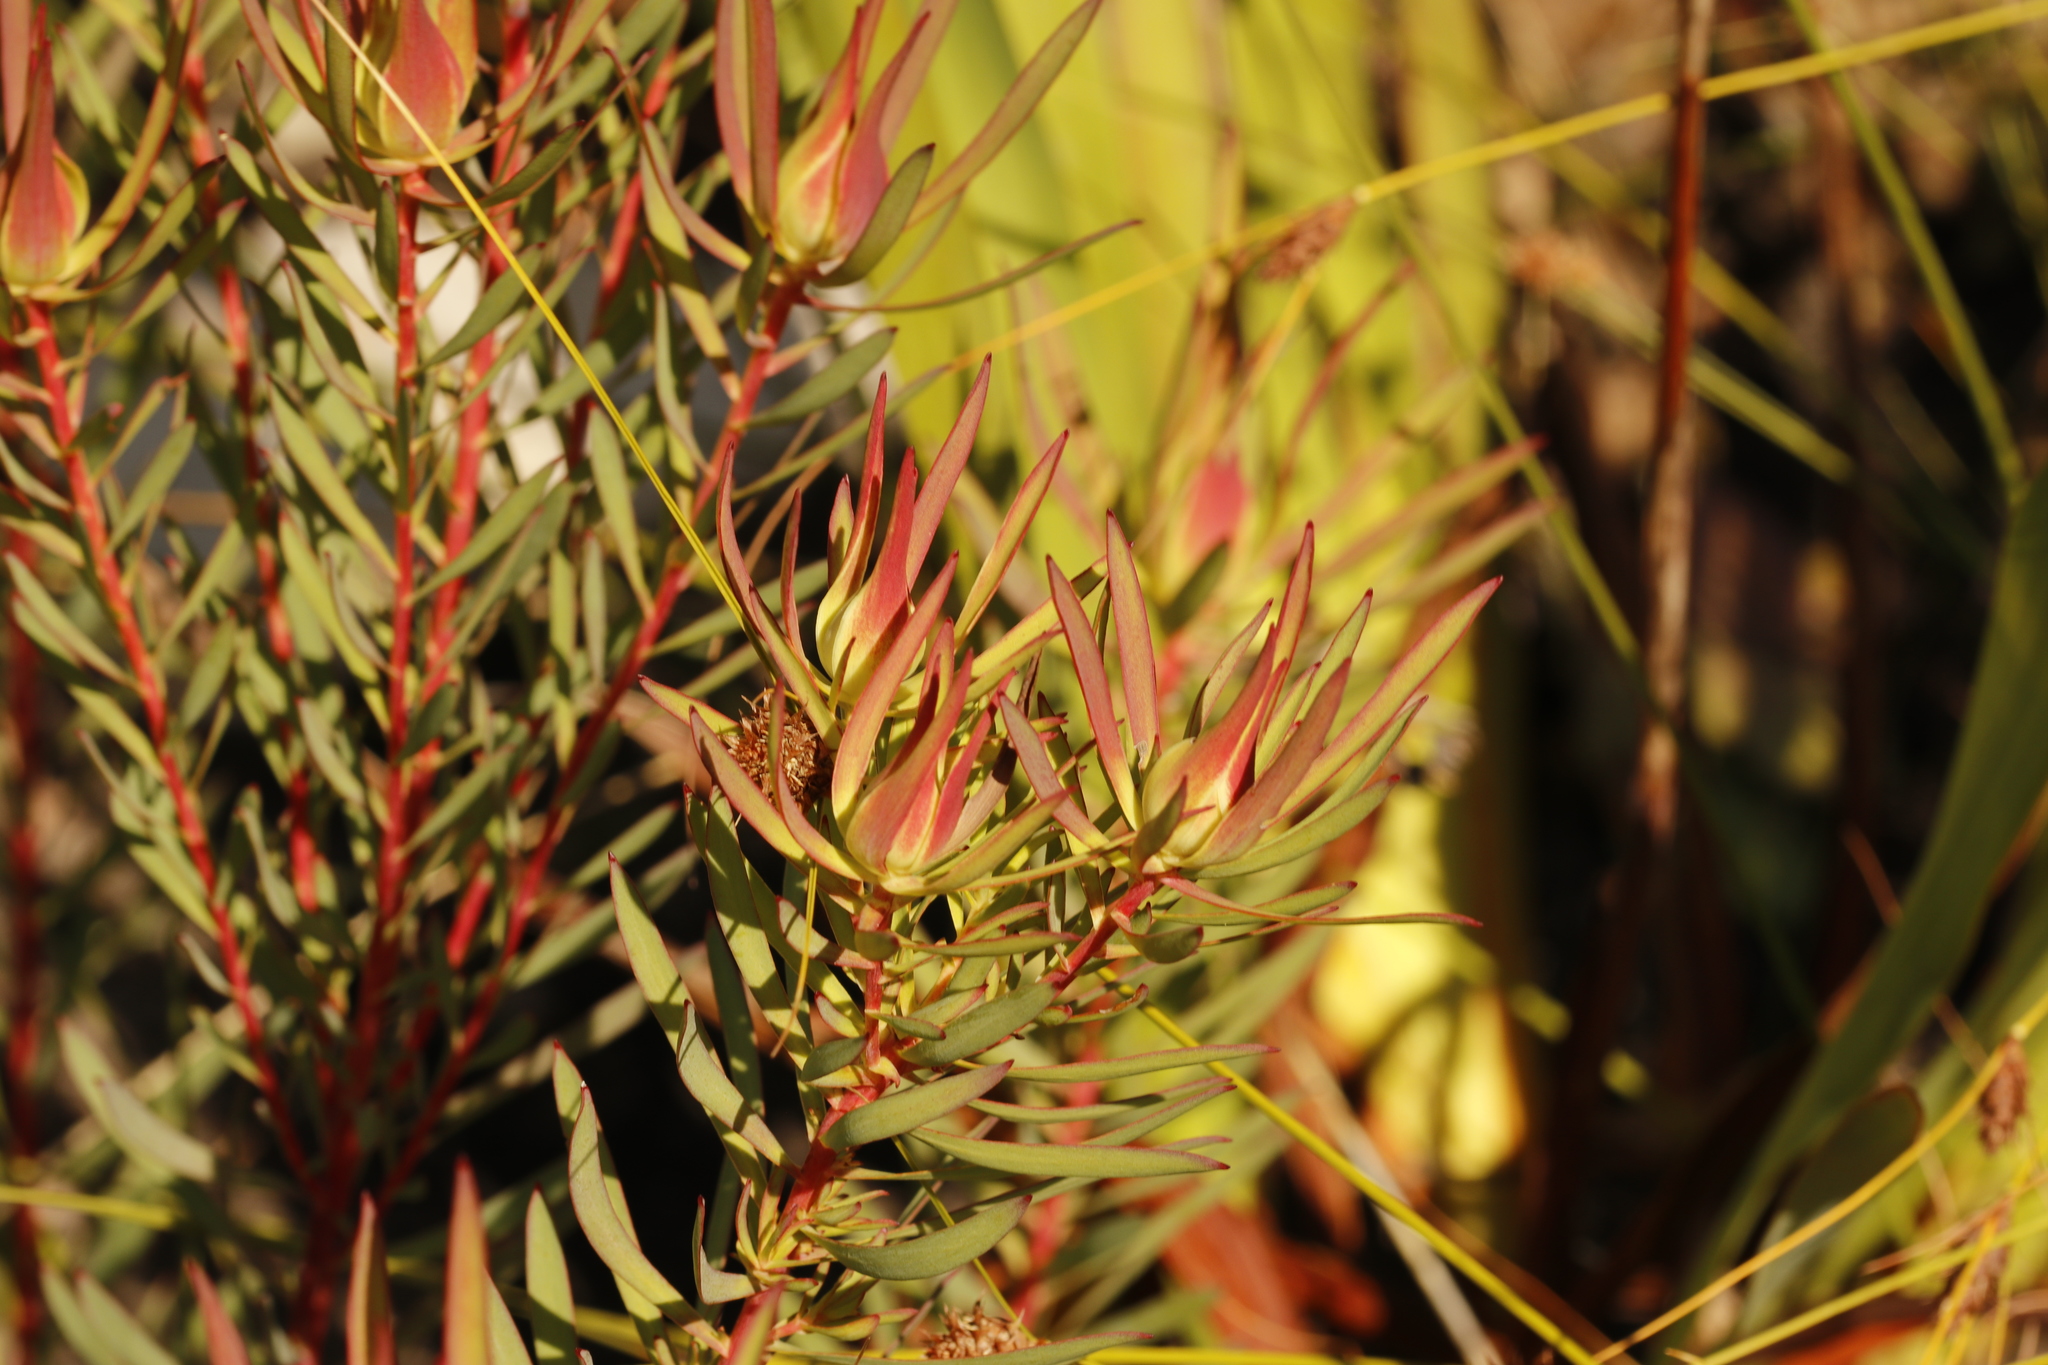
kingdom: Plantae
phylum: Tracheophyta
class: Magnoliopsida
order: Proteales
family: Proteaceae
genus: Leucadendron
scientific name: Leucadendron salignum
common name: Common sunshine conebush
